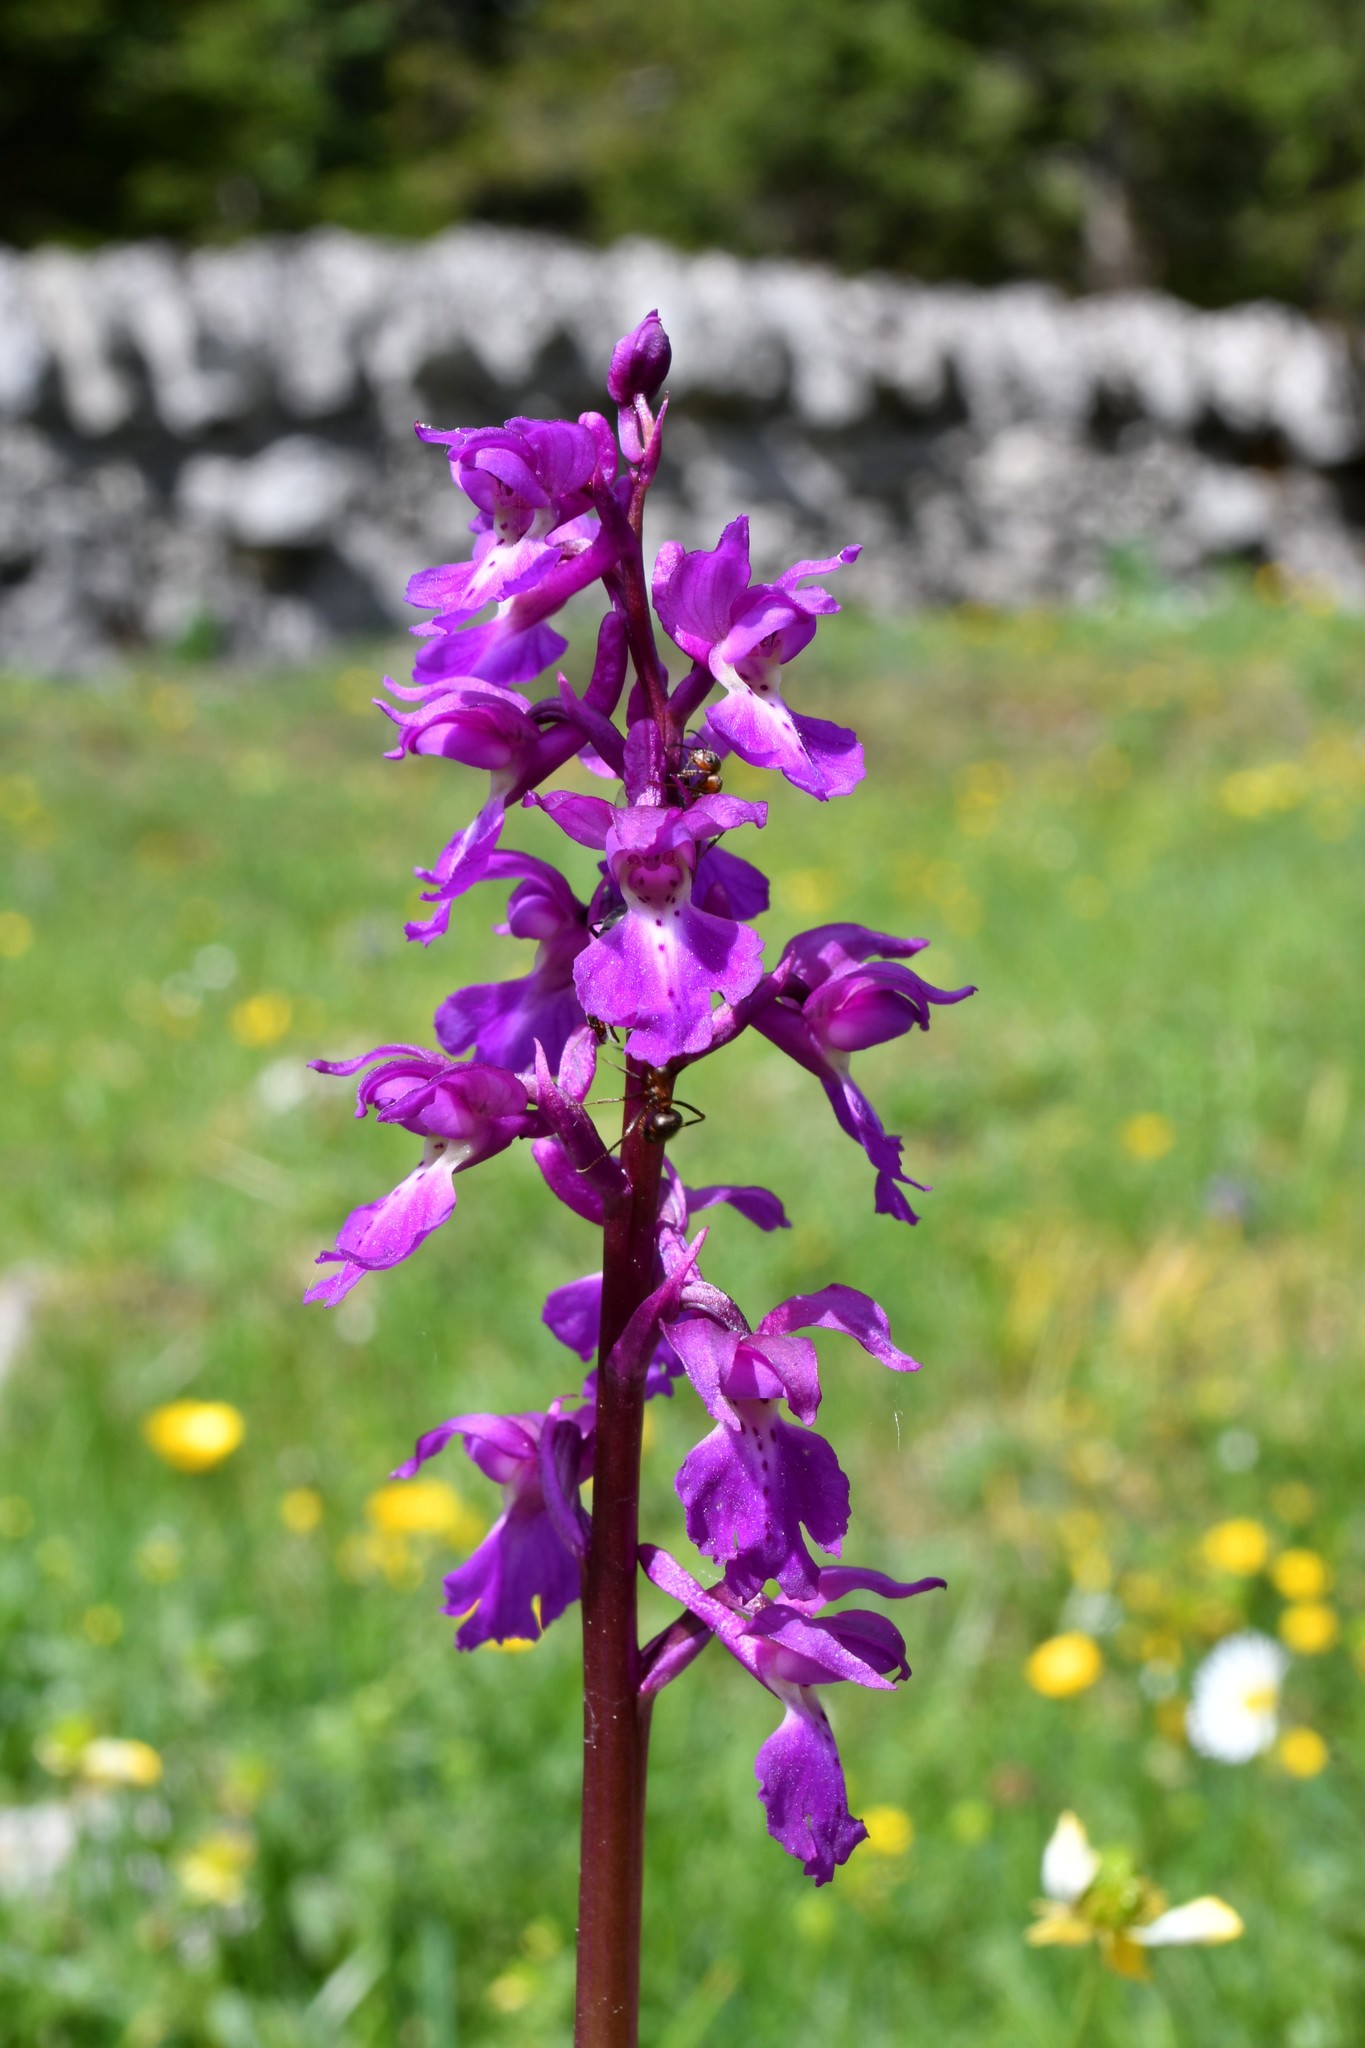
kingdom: Plantae
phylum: Tracheophyta
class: Liliopsida
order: Asparagales
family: Orchidaceae
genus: Orchis
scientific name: Orchis mascula
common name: Early-purple orchid
